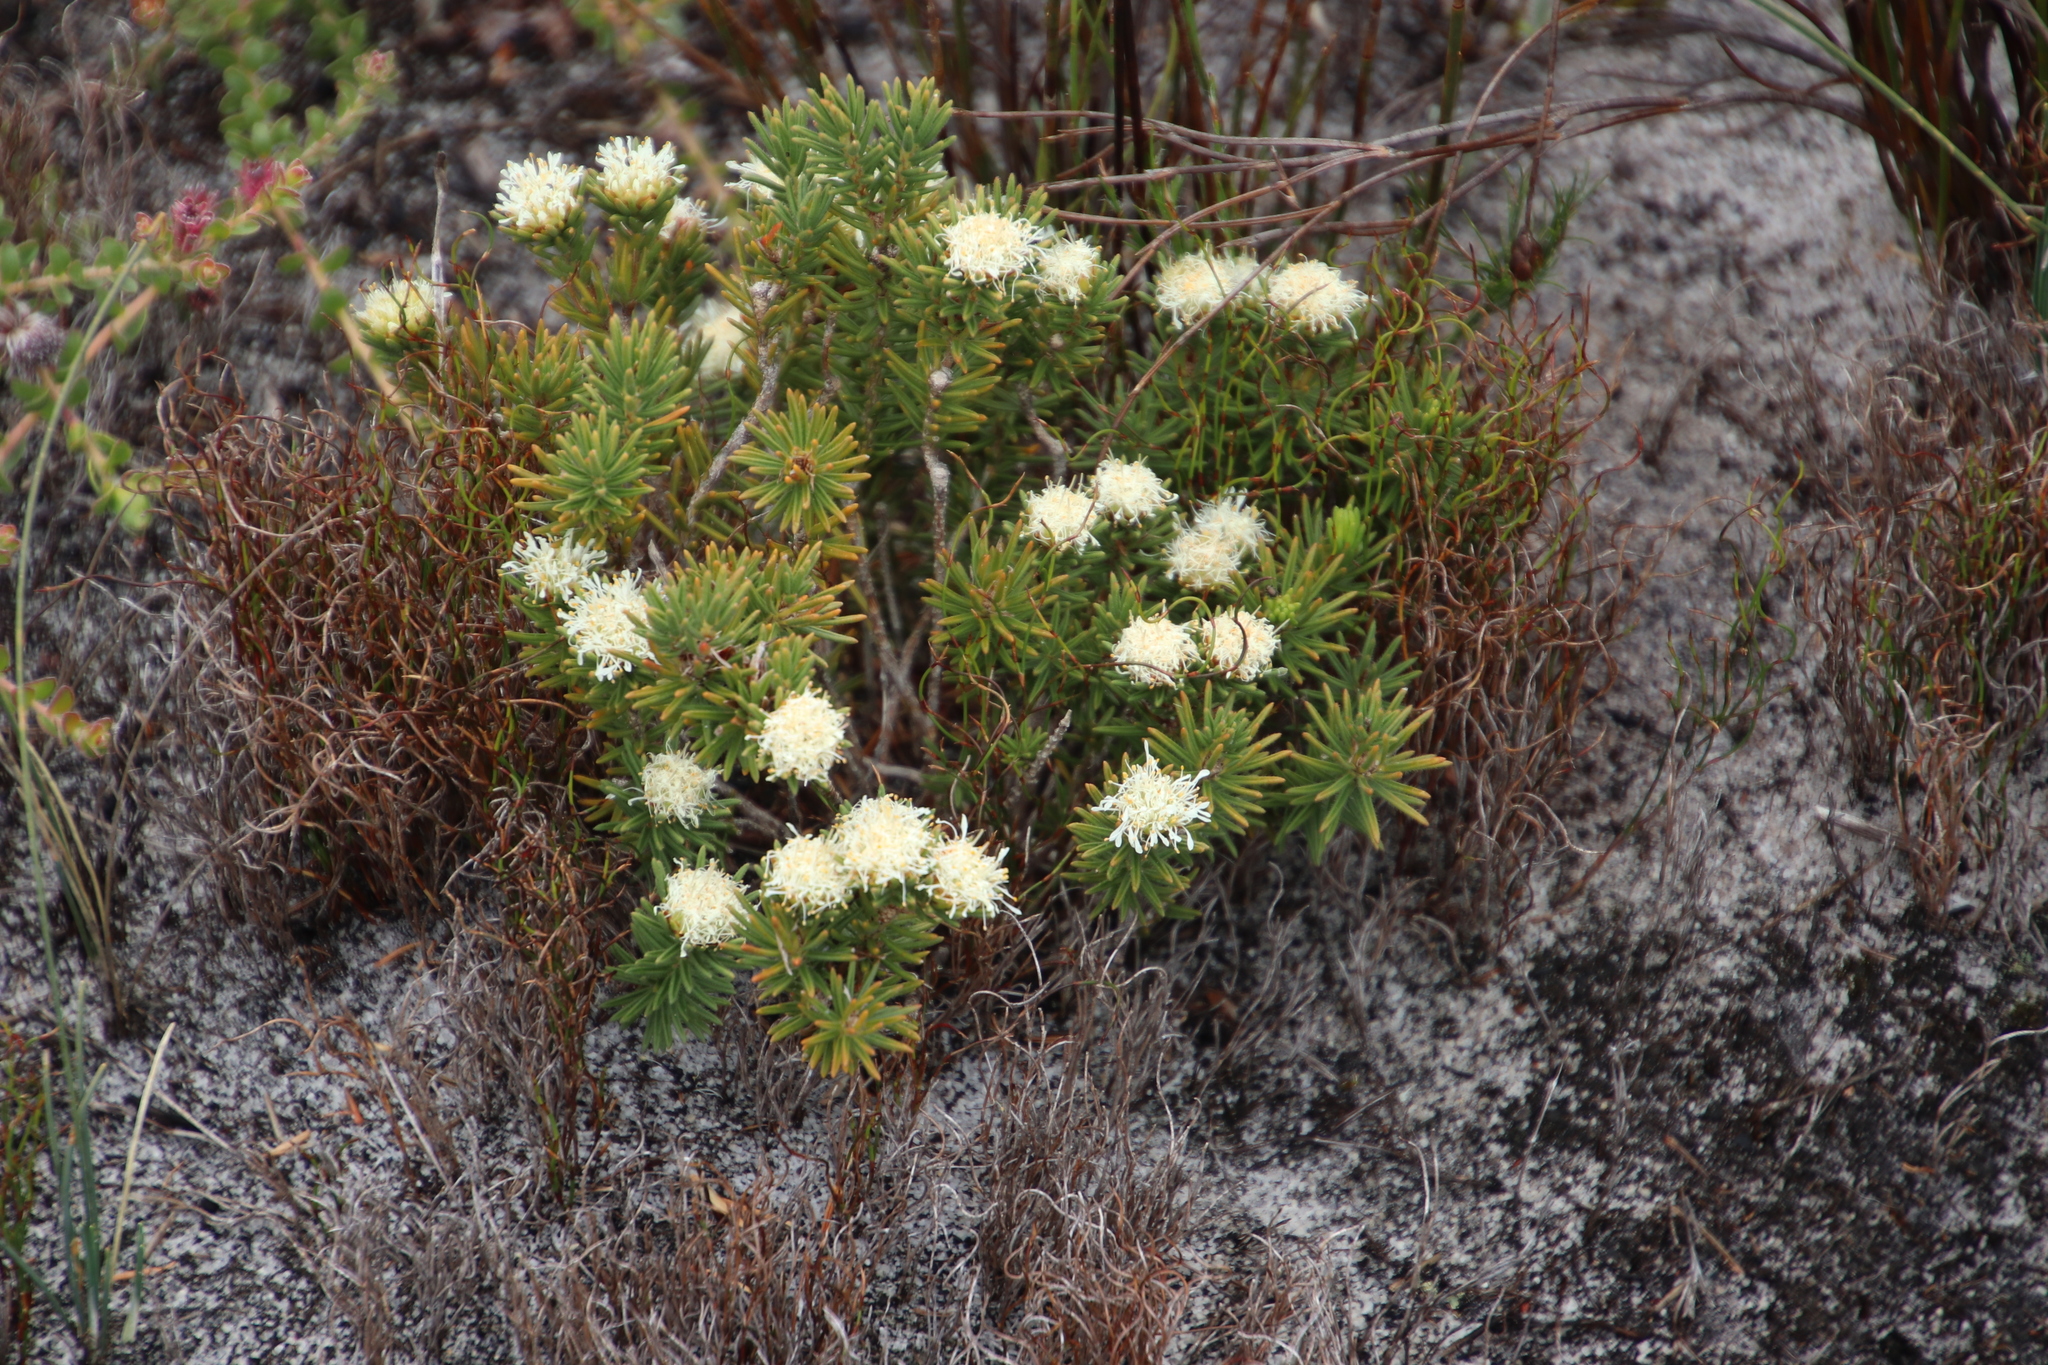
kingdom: Plantae
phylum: Tracheophyta
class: Magnoliopsida
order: Sapindales
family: Rutaceae
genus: Agathosma
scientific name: Agathosma hookeri
